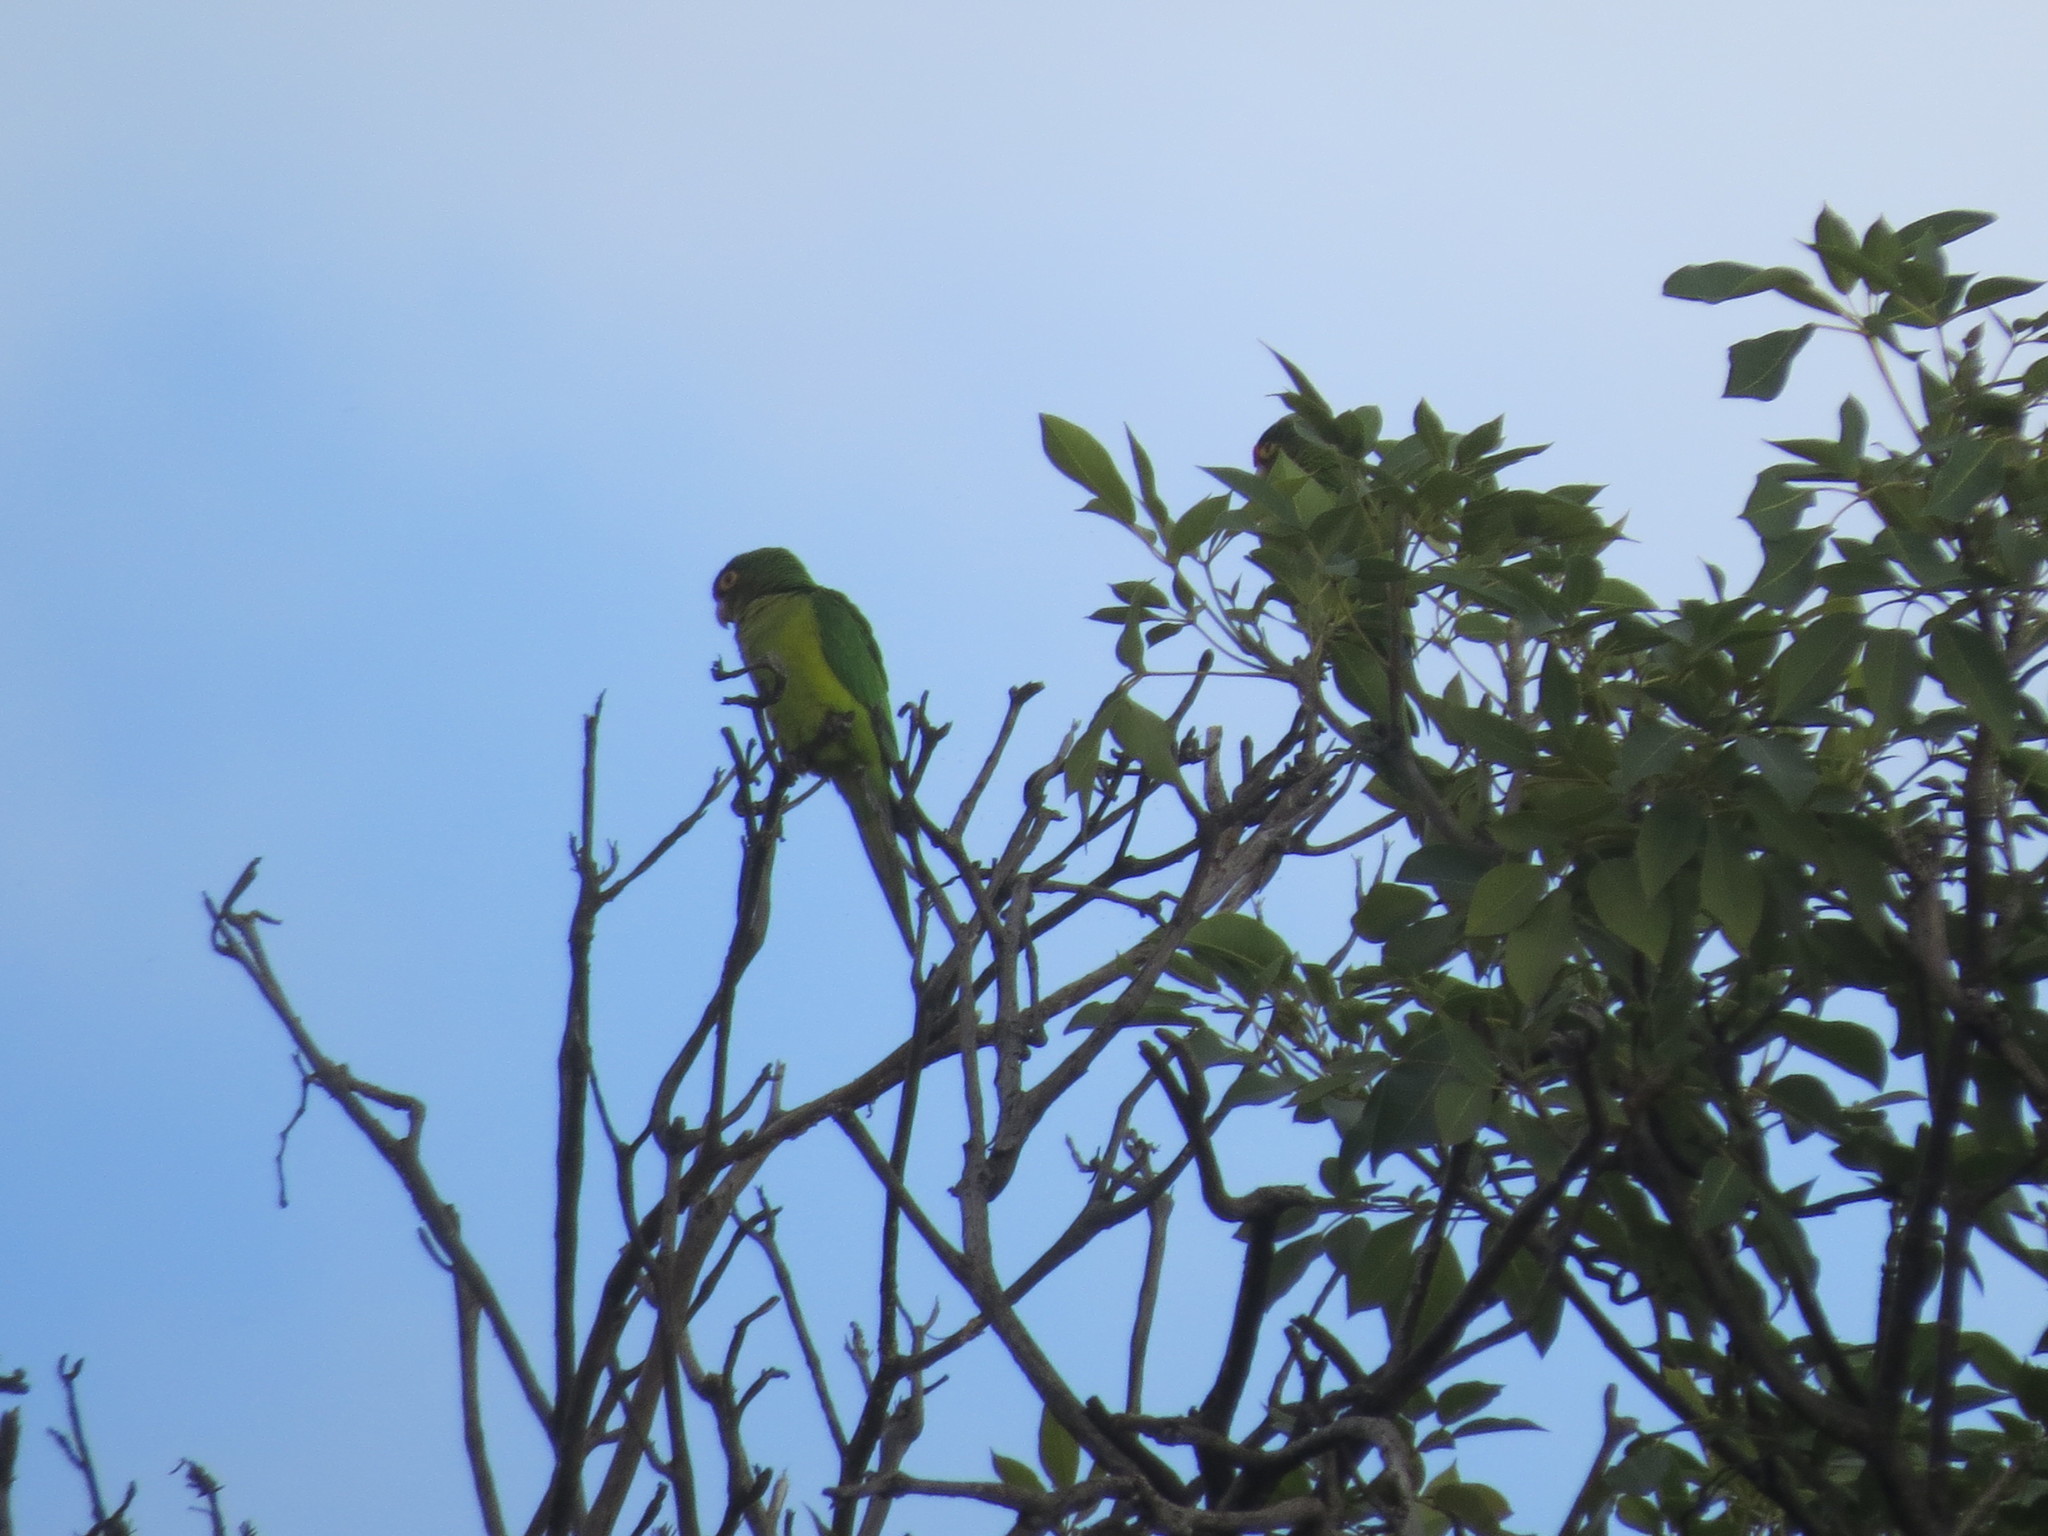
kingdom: Animalia
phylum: Chordata
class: Aves
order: Psittaciformes
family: Psittacidae
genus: Aratinga
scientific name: Aratinga canicularis
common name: Orange-fronted parakeet
